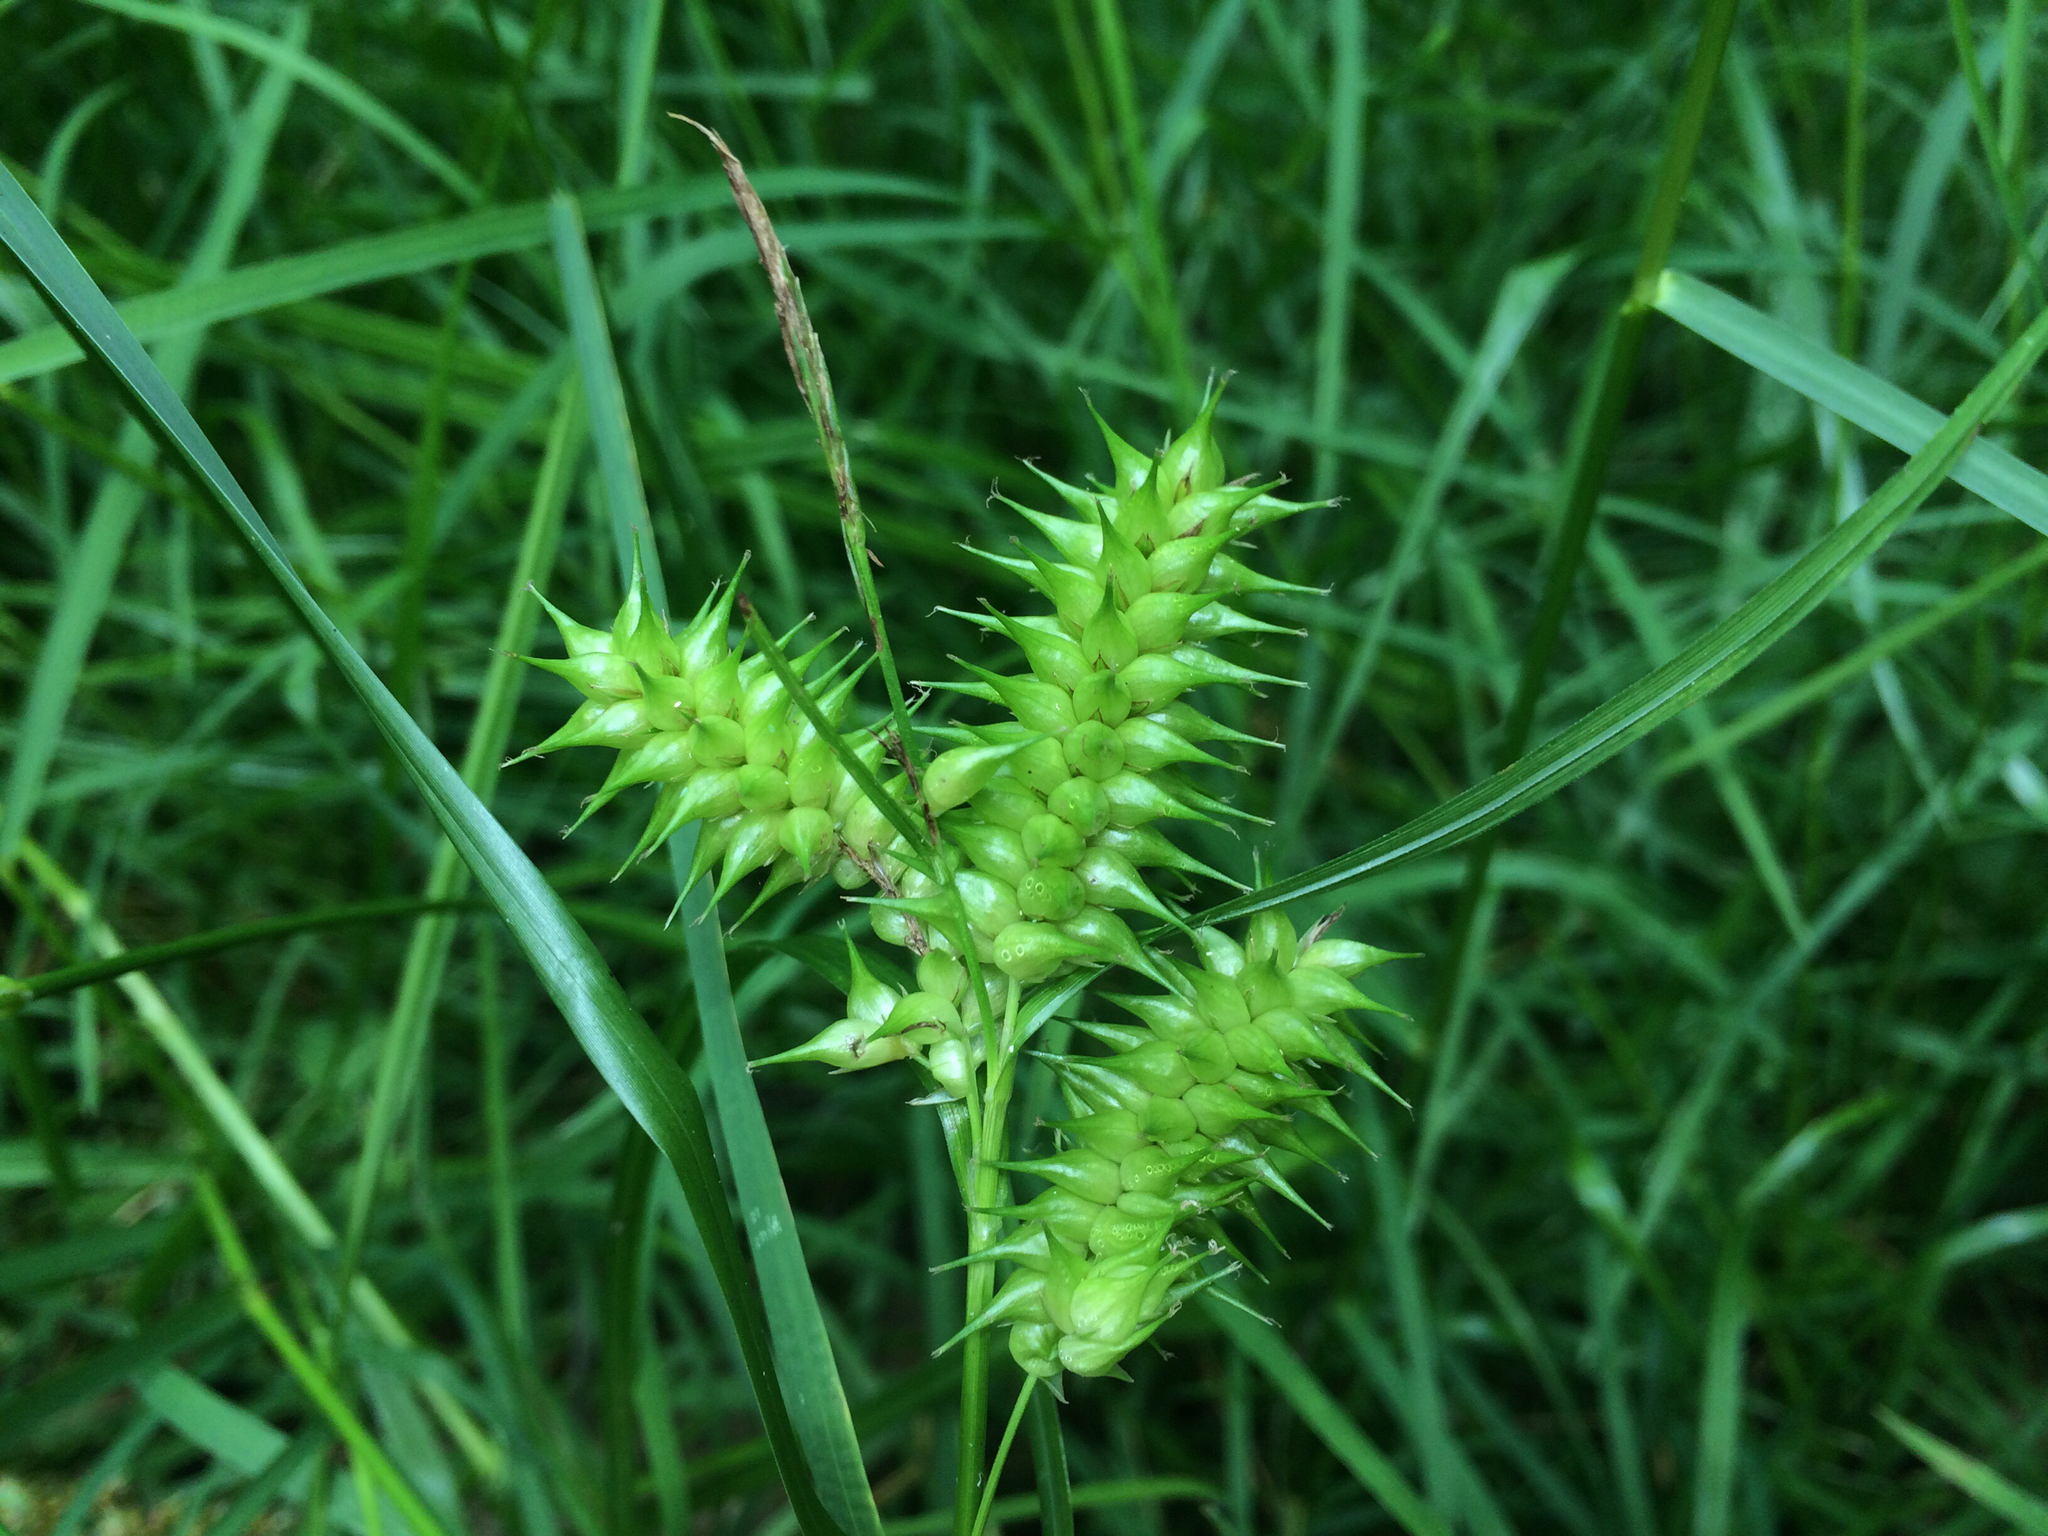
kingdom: Plantae
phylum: Tracheophyta
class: Liliopsida
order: Poales
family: Cyperaceae
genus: Carex
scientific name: Carex retrorsa
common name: Knot-sheath sedge
